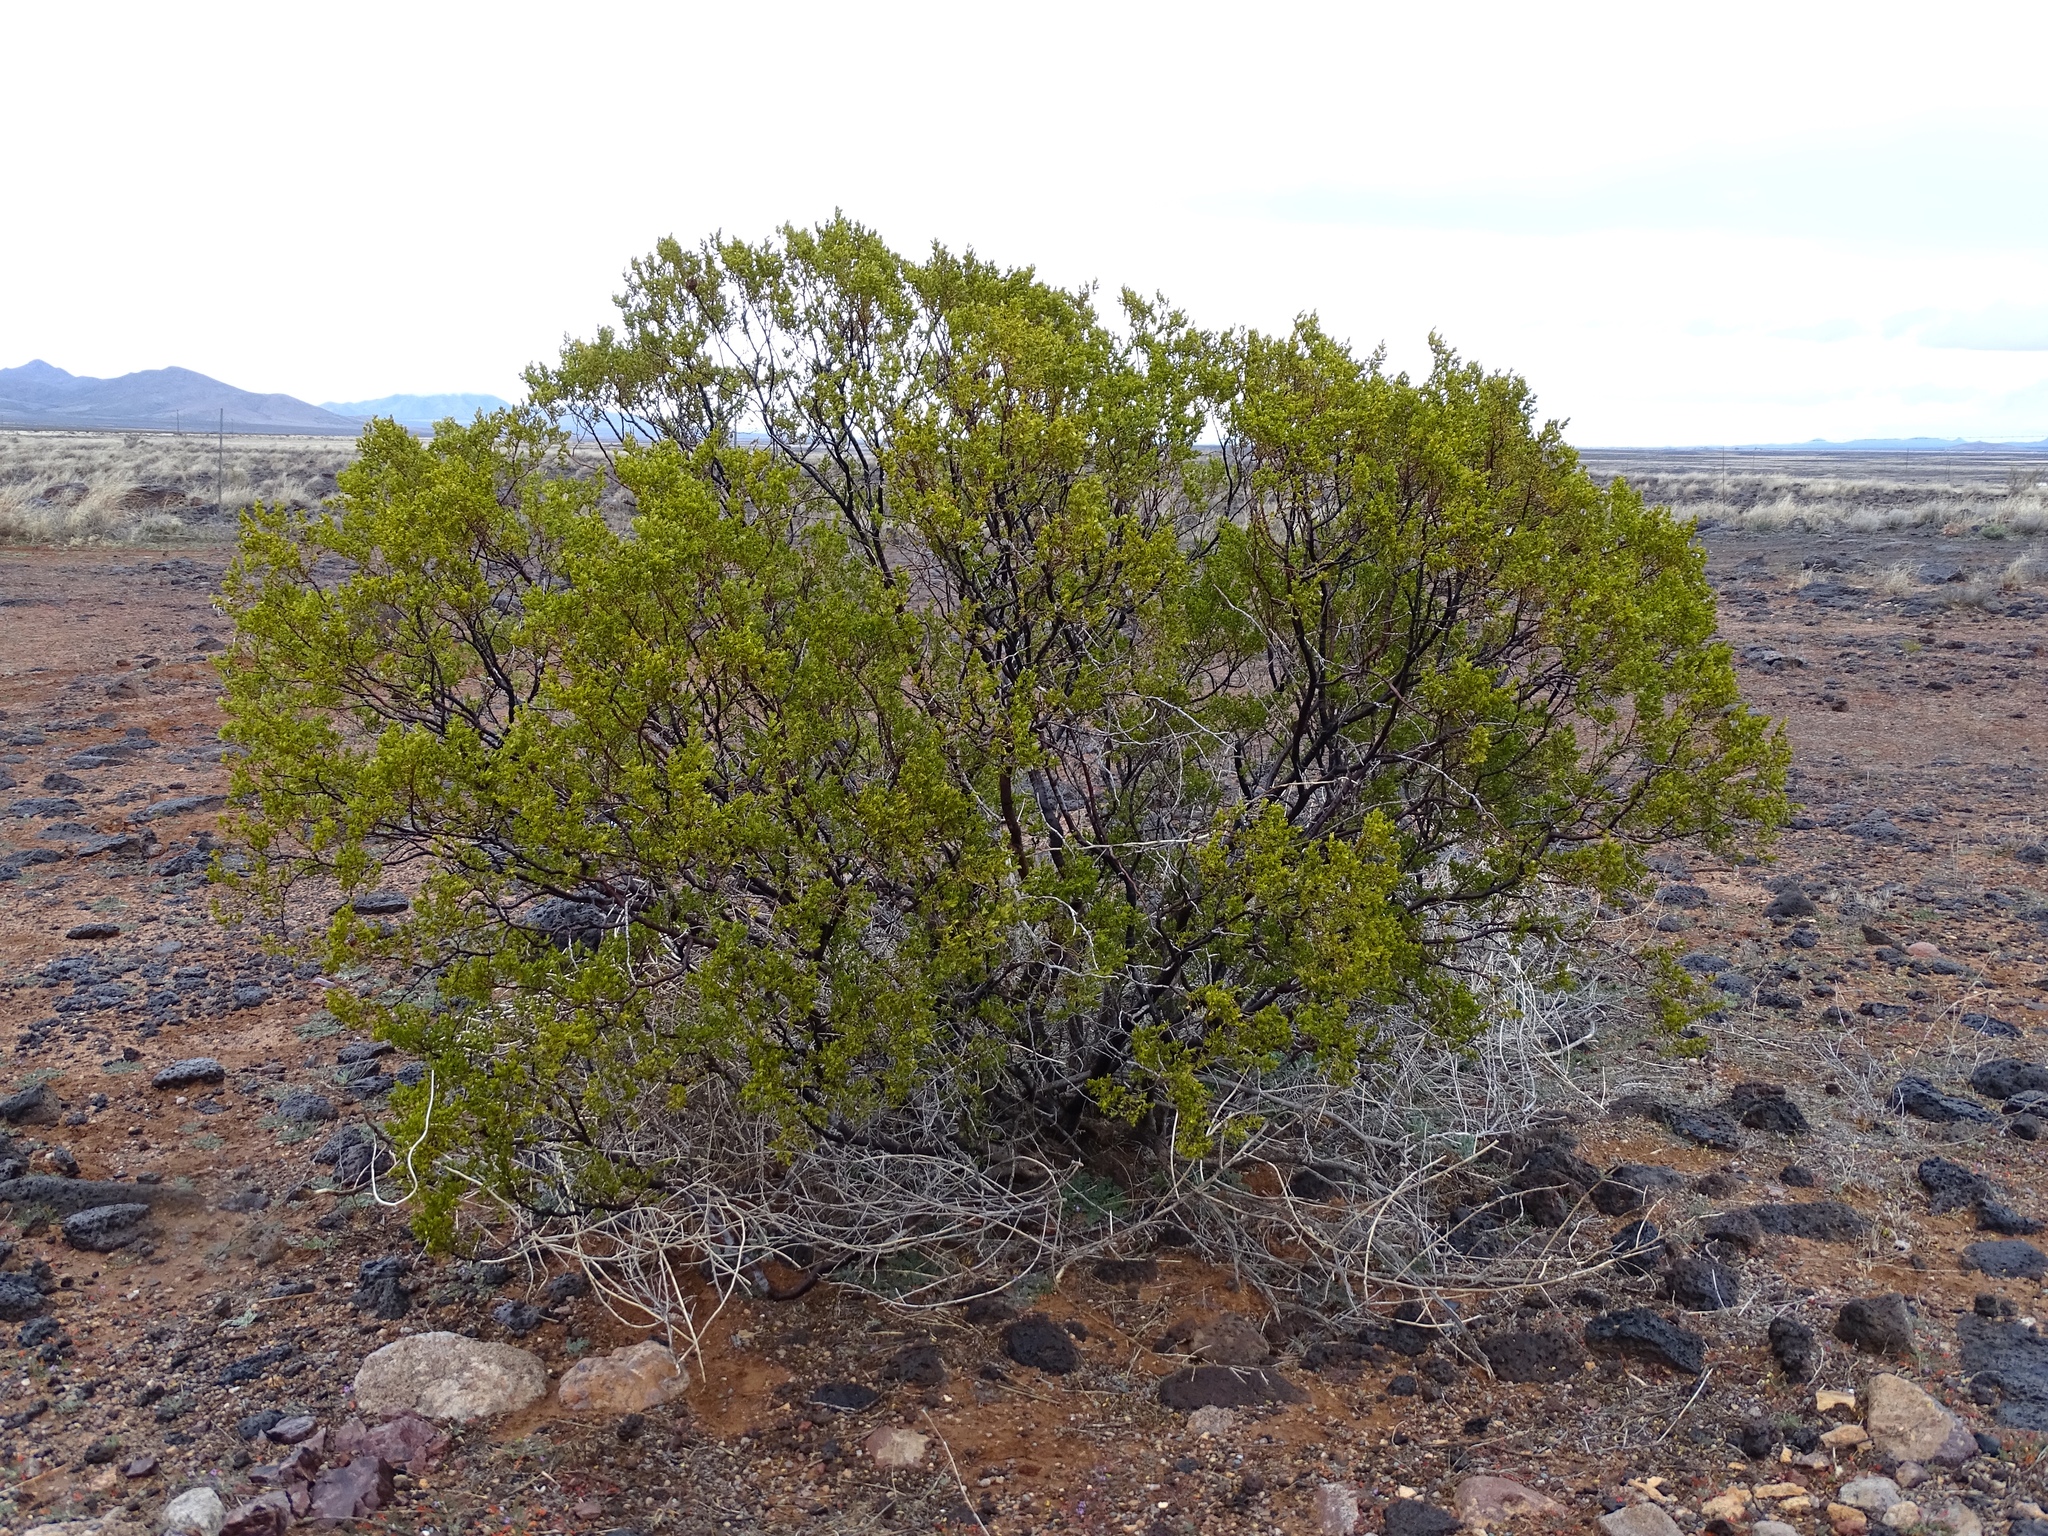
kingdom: Plantae
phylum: Tracheophyta
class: Magnoliopsida
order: Zygophyllales
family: Zygophyllaceae
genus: Larrea
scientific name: Larrea tridentata
